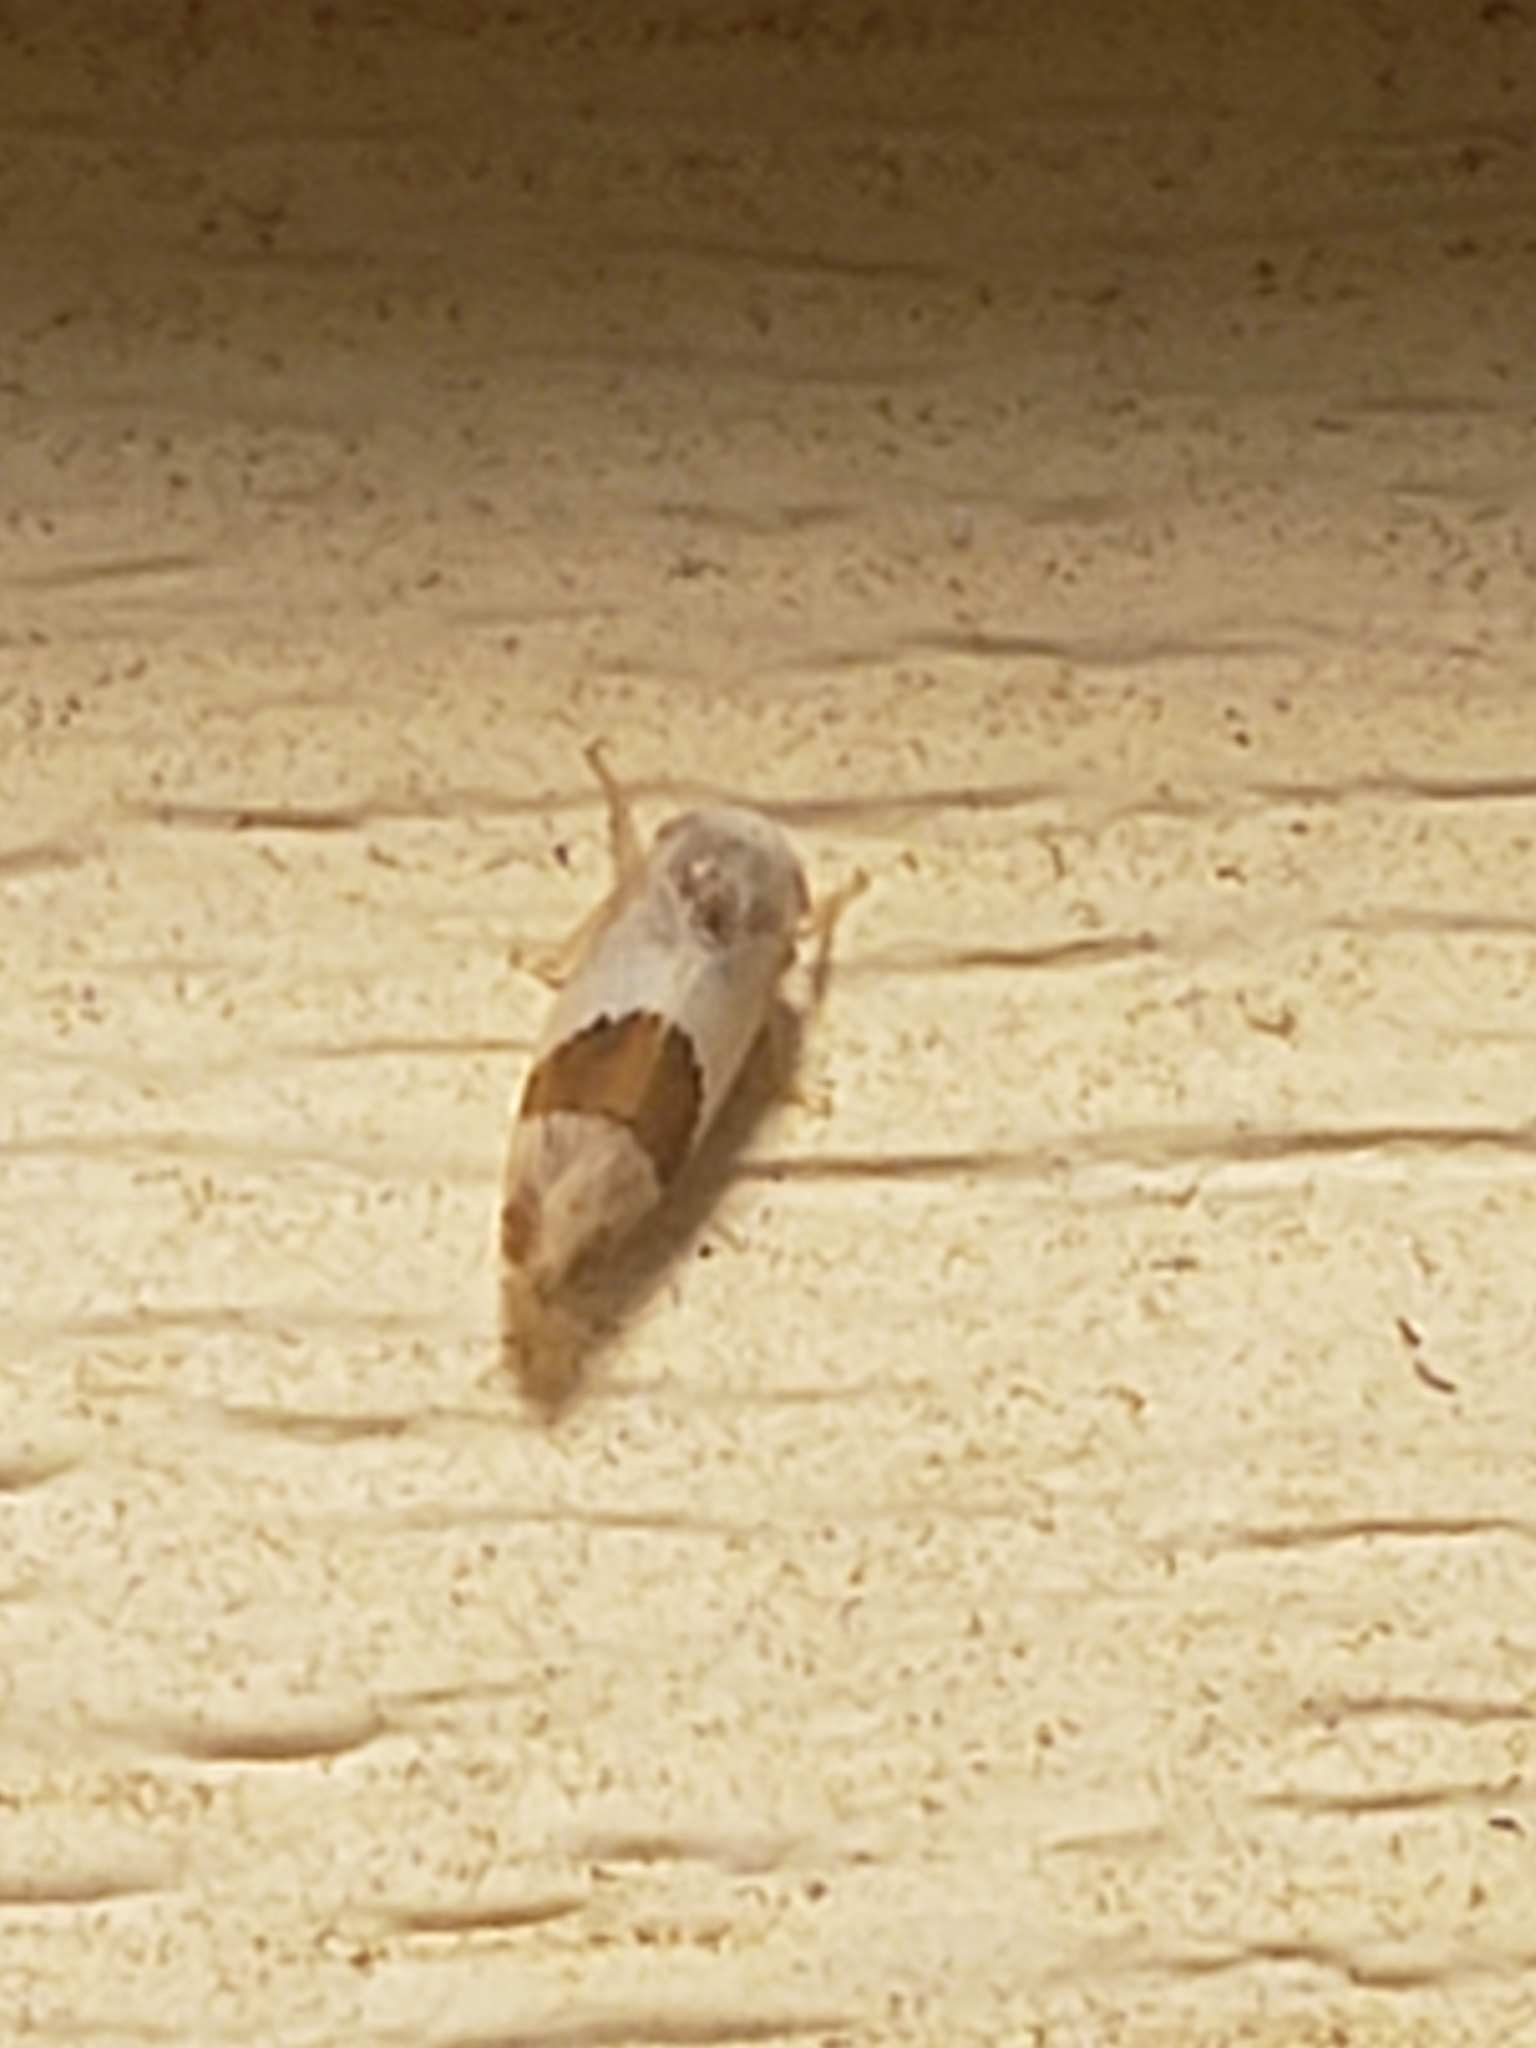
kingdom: Animalia
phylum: Arthropoda
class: Insecta
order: Hemiptera
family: Cicadellidae
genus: Norvellina
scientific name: Norvellina seminuda
